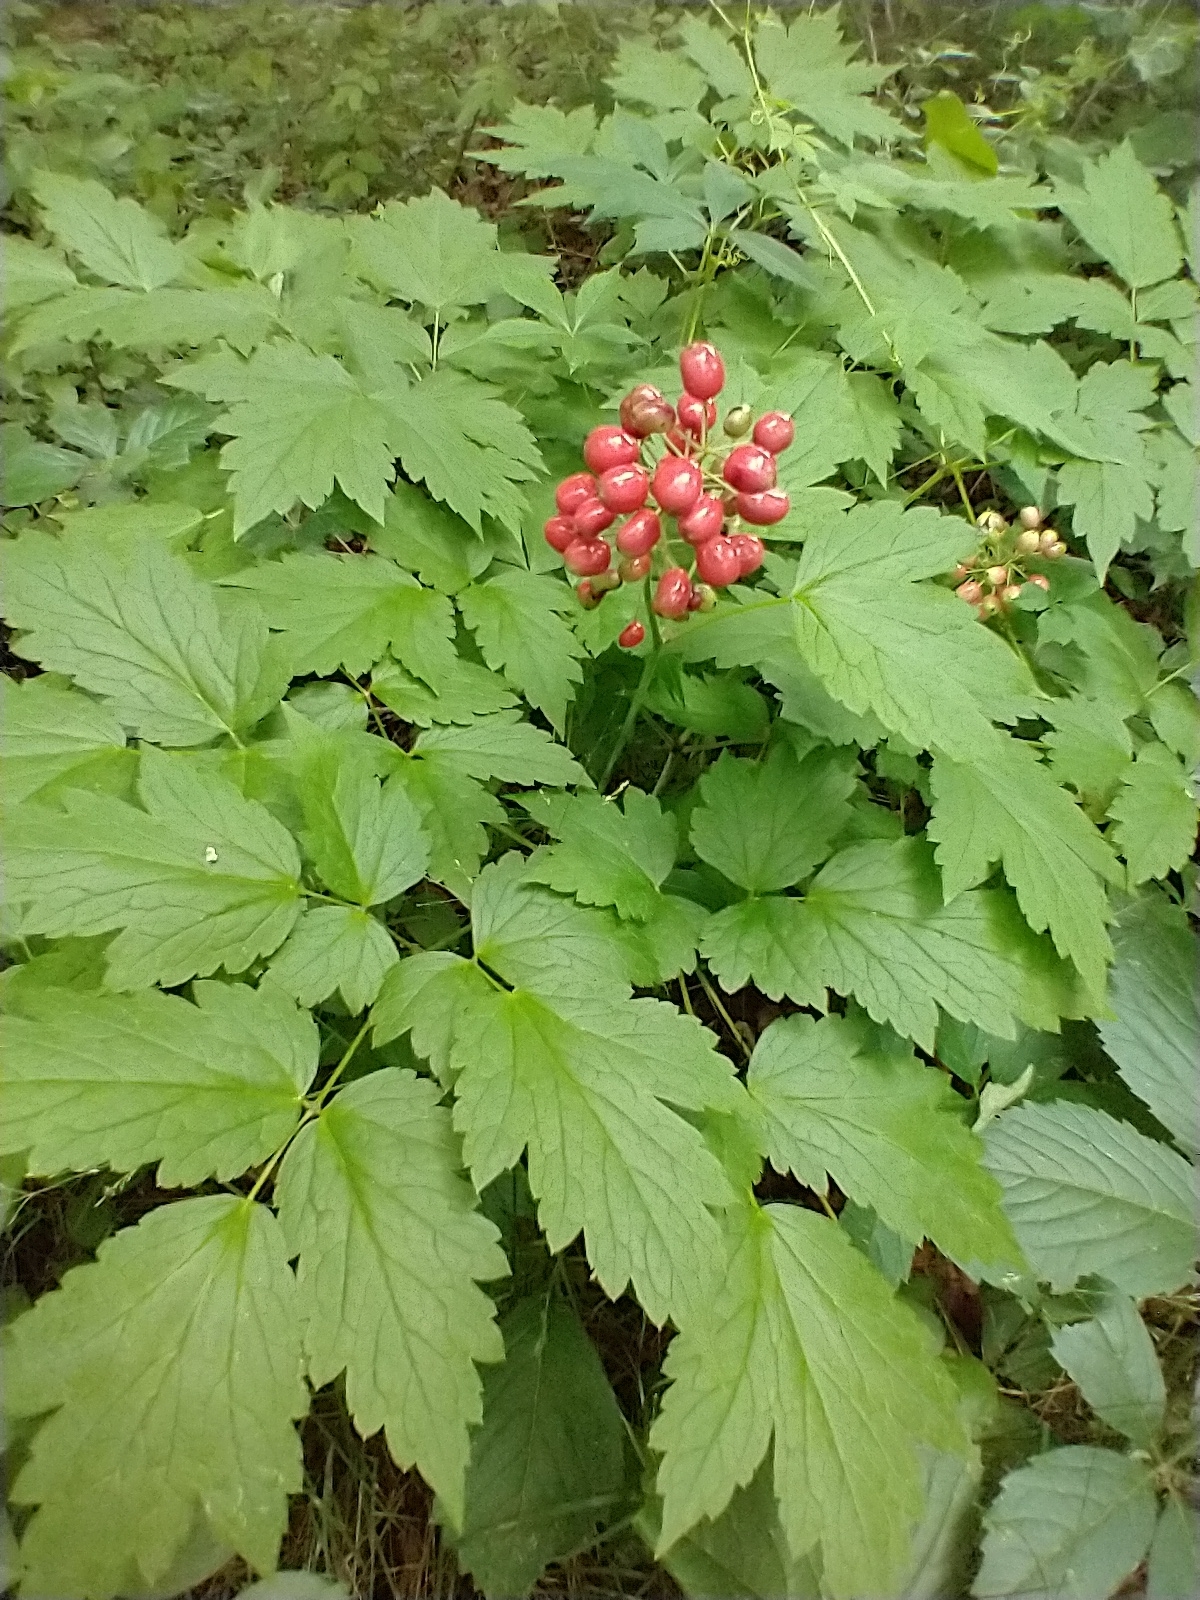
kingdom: Plantae
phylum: Tracheophyta
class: Magnoliopsida
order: Ranunculales
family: Ranunculaceae
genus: Actaea
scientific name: Actaea rubra
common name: Red baneberry
